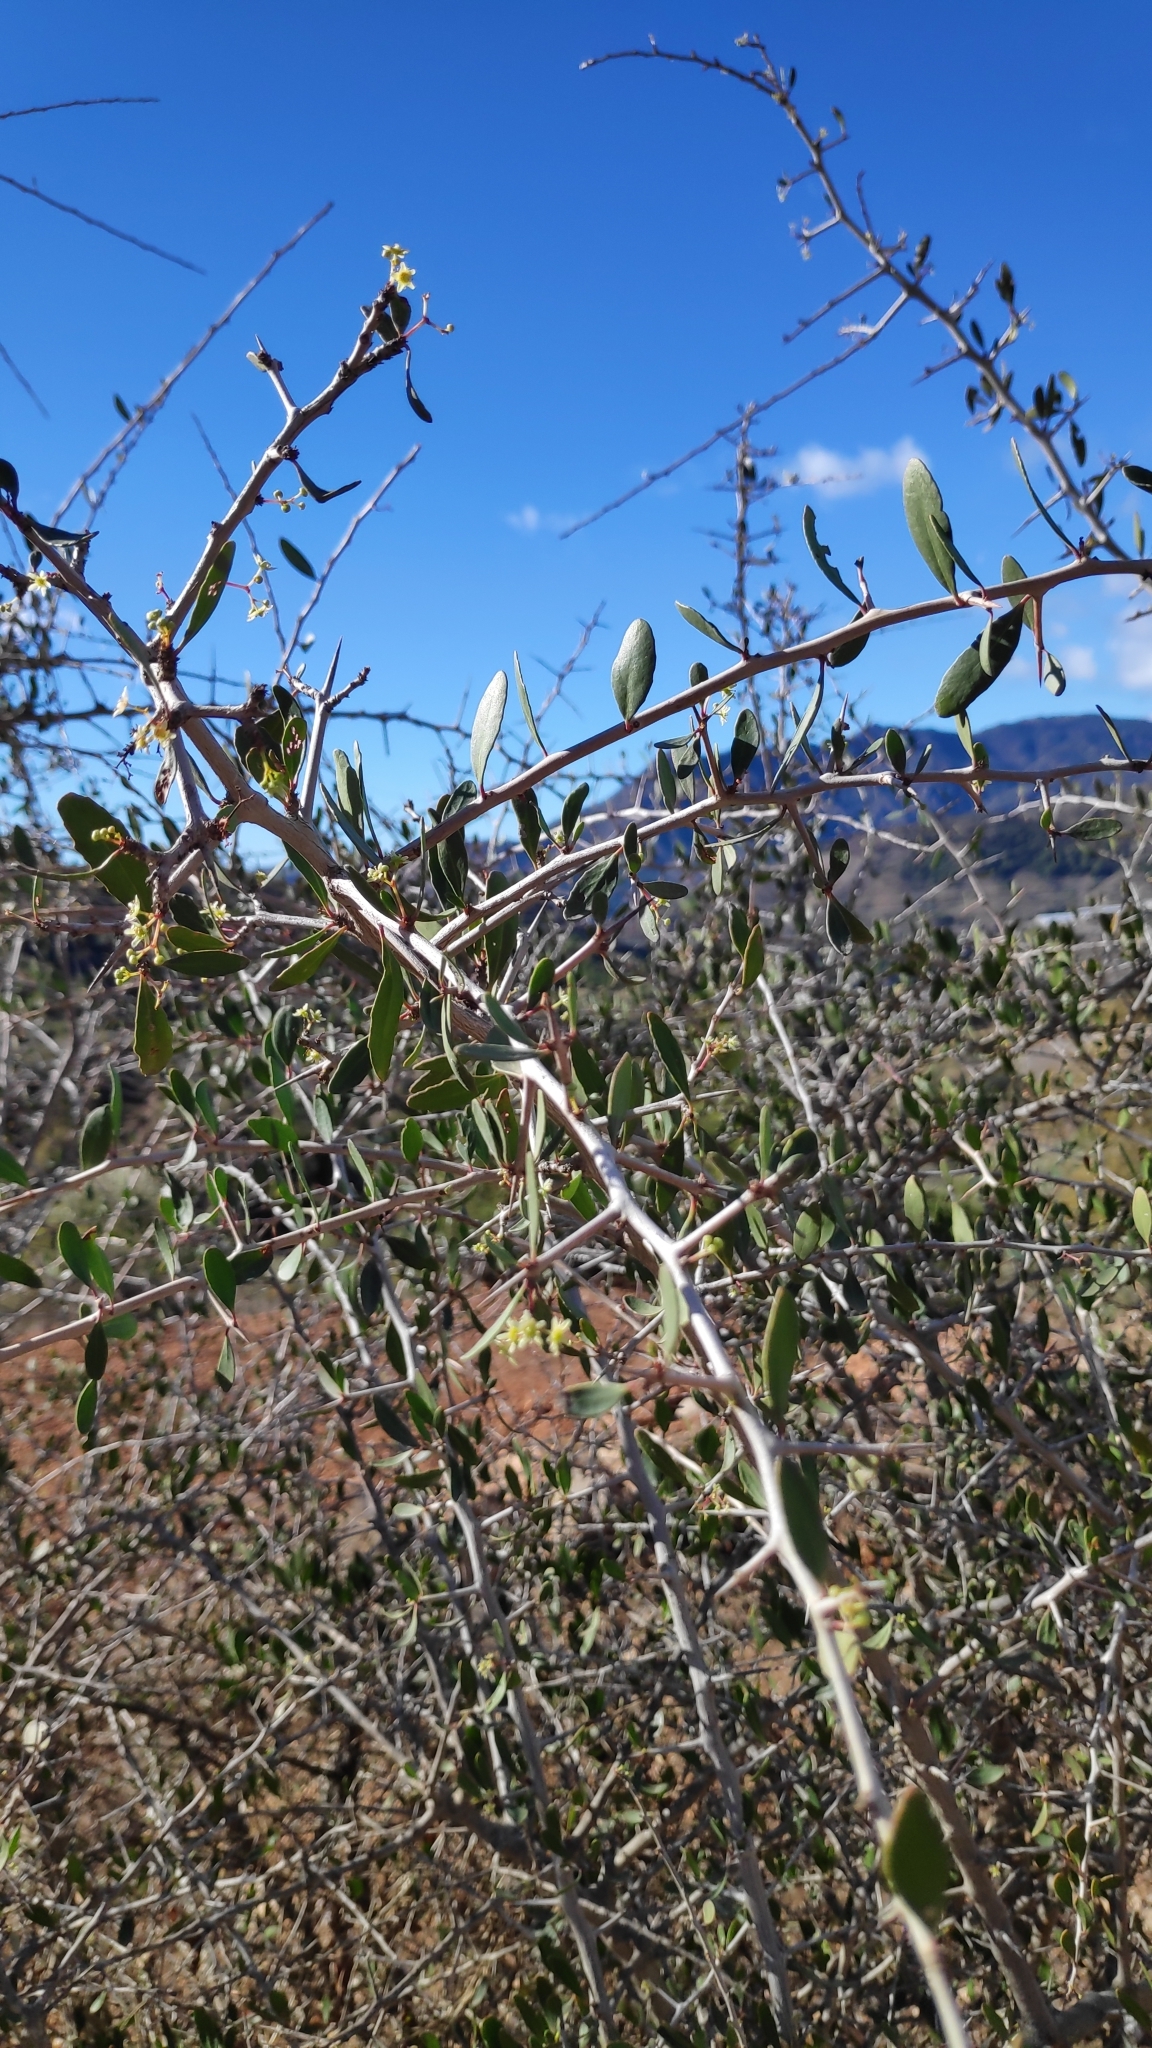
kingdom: Plantae
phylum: Tracheophyta
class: Magnoliopsida
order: Celastrales
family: Celastraceae
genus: Gymnosporia
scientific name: Gymnosporia senegalensis
